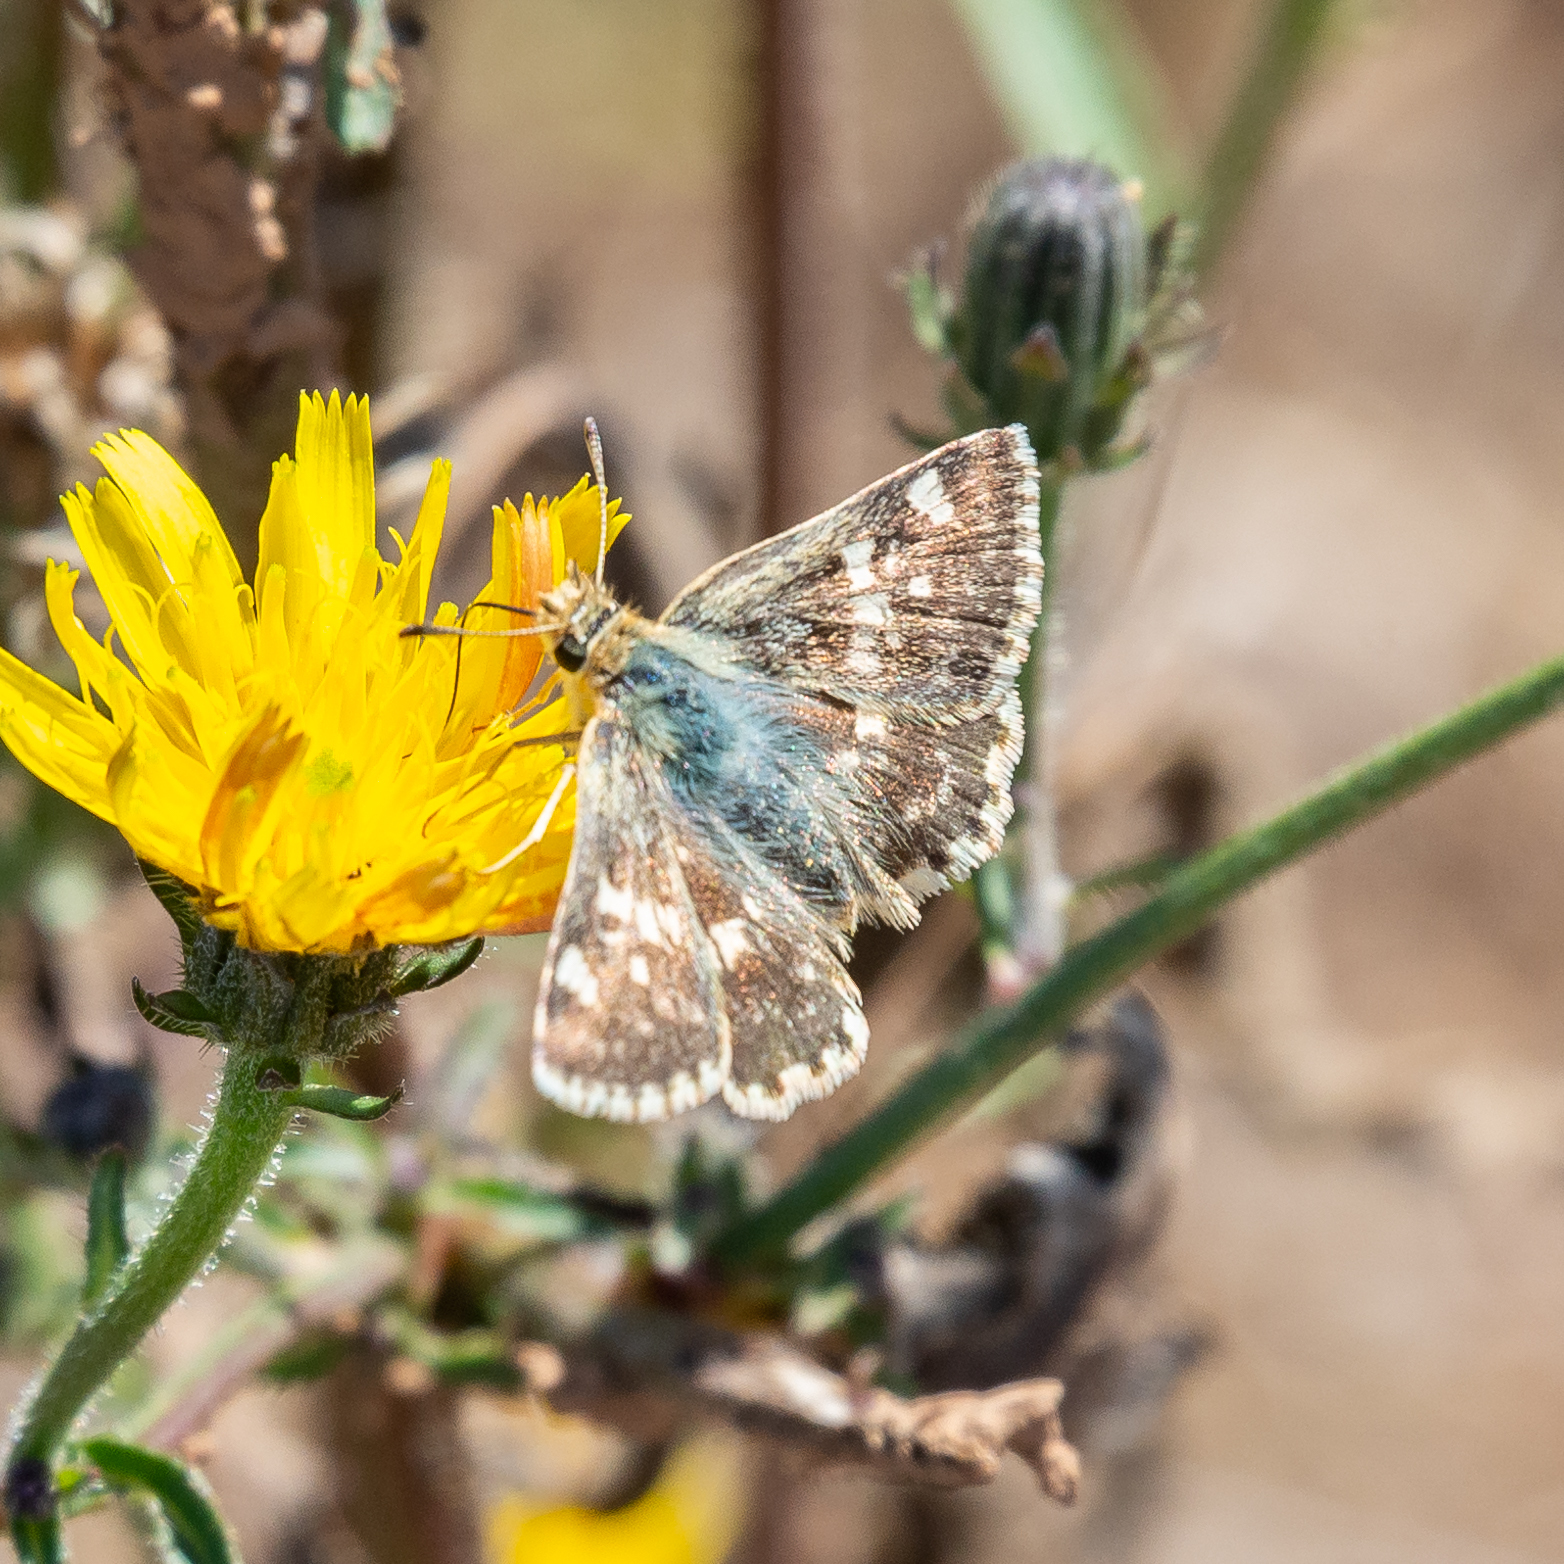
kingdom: Animalia
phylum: Arthropoda
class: Insecta
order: Lepidoptera
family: Hesperiidae
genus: Syrichtus
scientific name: Syrichtus Muschampia proto
